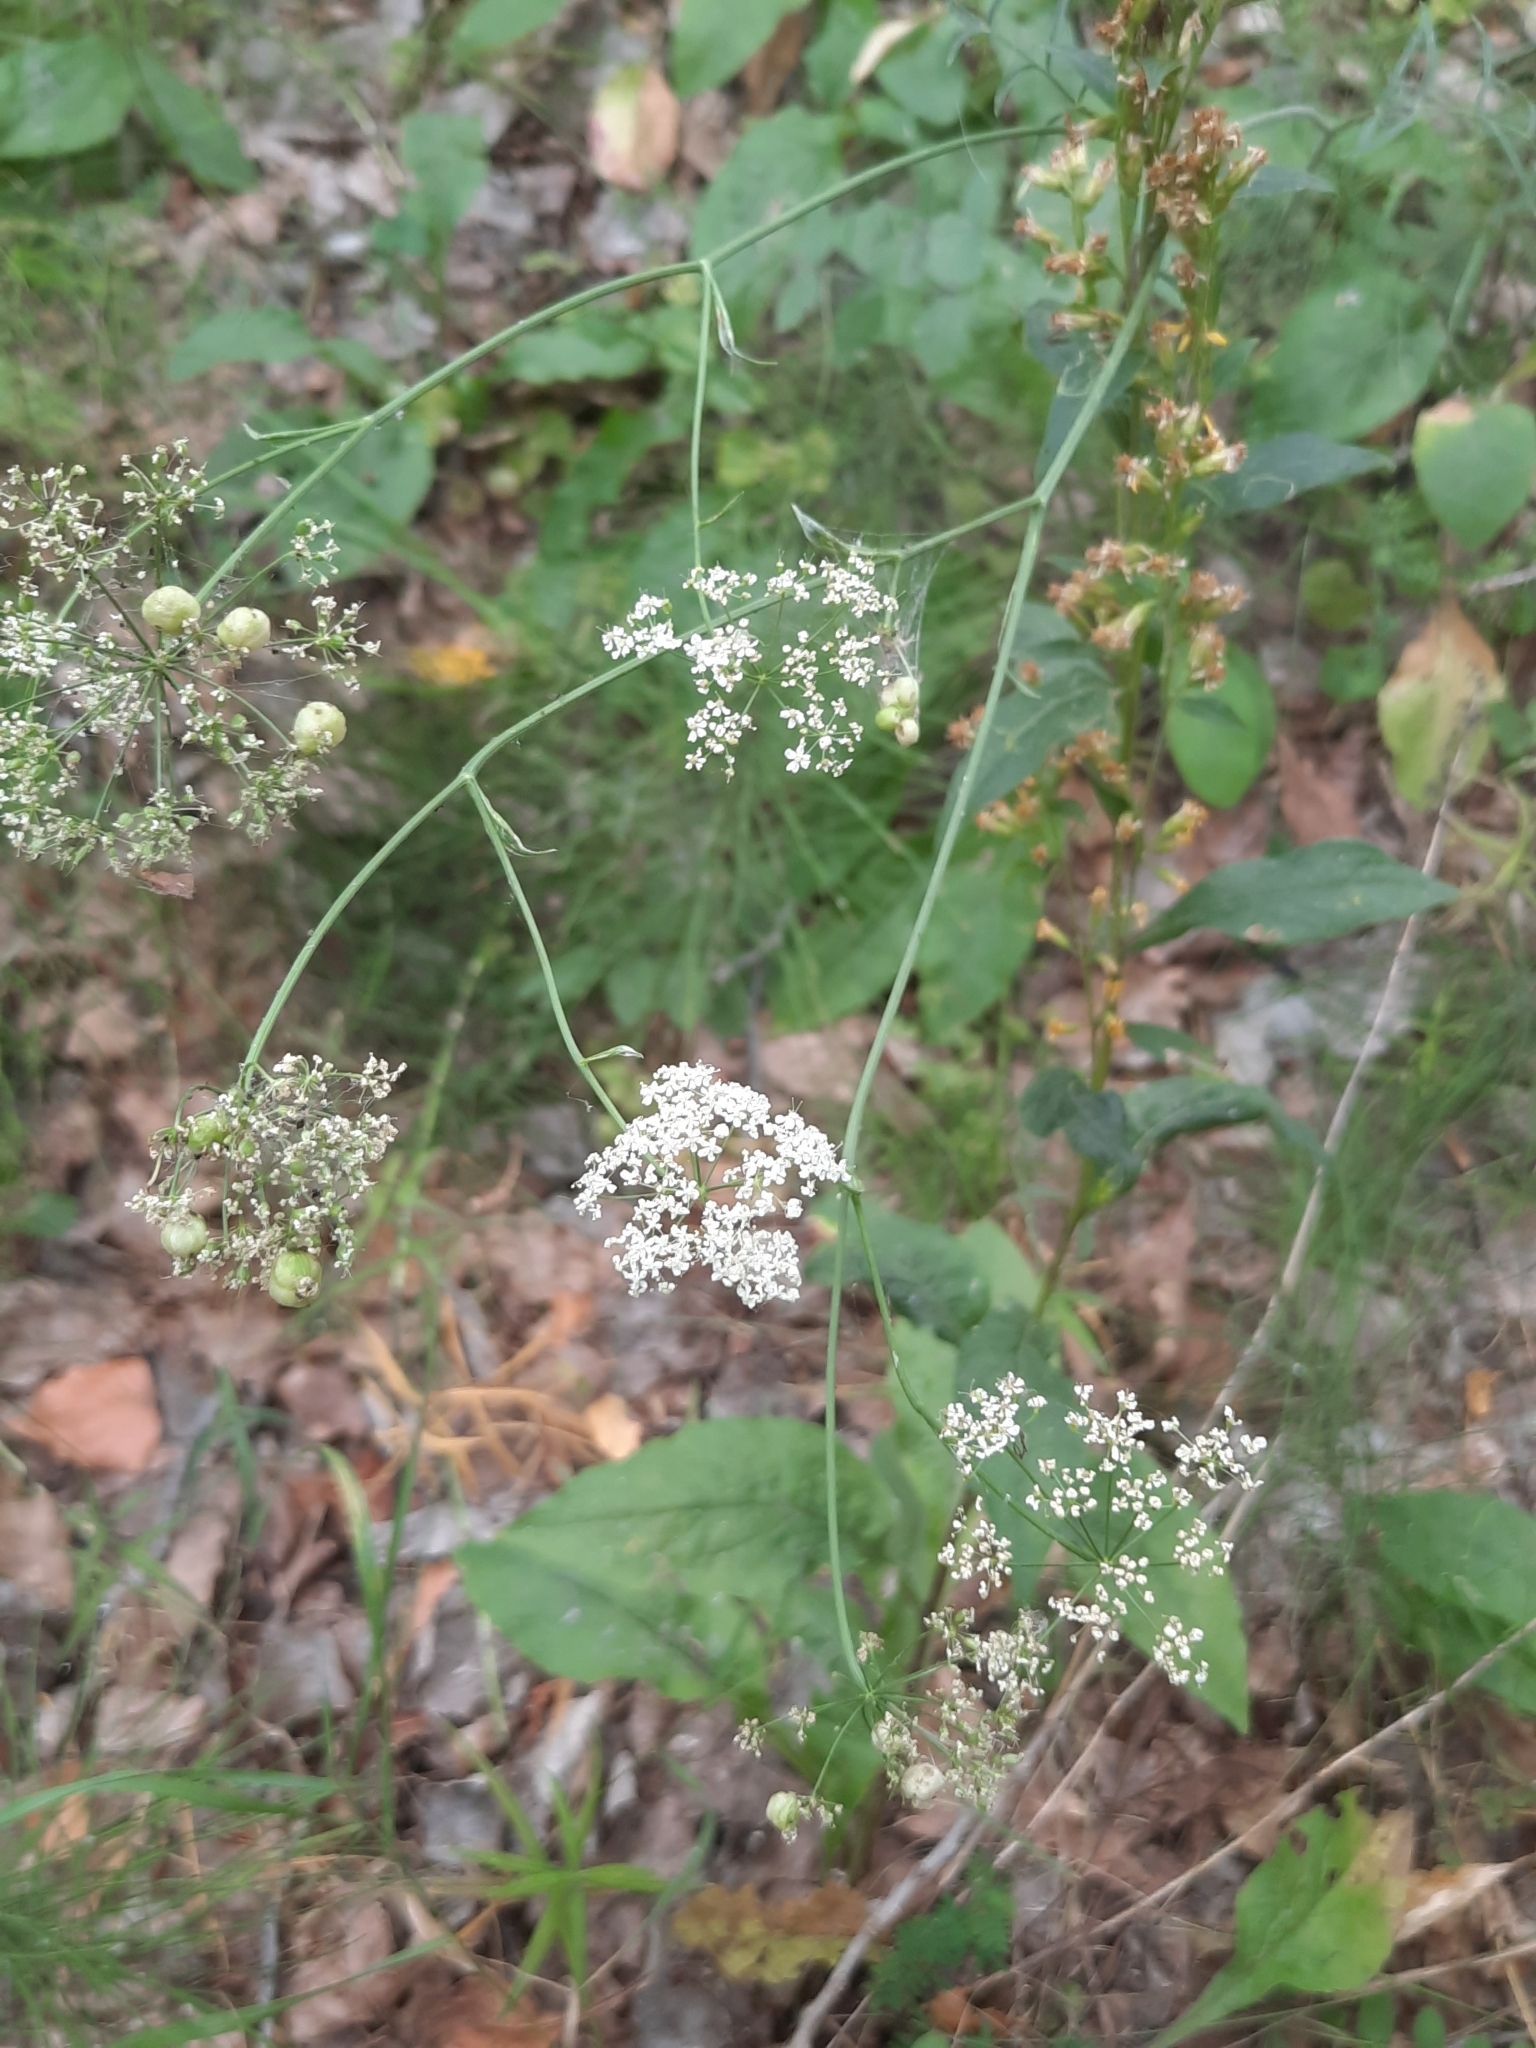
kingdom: Plantae
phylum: Tracheophyta
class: Magnoliopsida
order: Apiales
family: Apiaceae
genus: Pimpinella
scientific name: Pimpinella saxifraga
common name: Burnet-saxifrage
